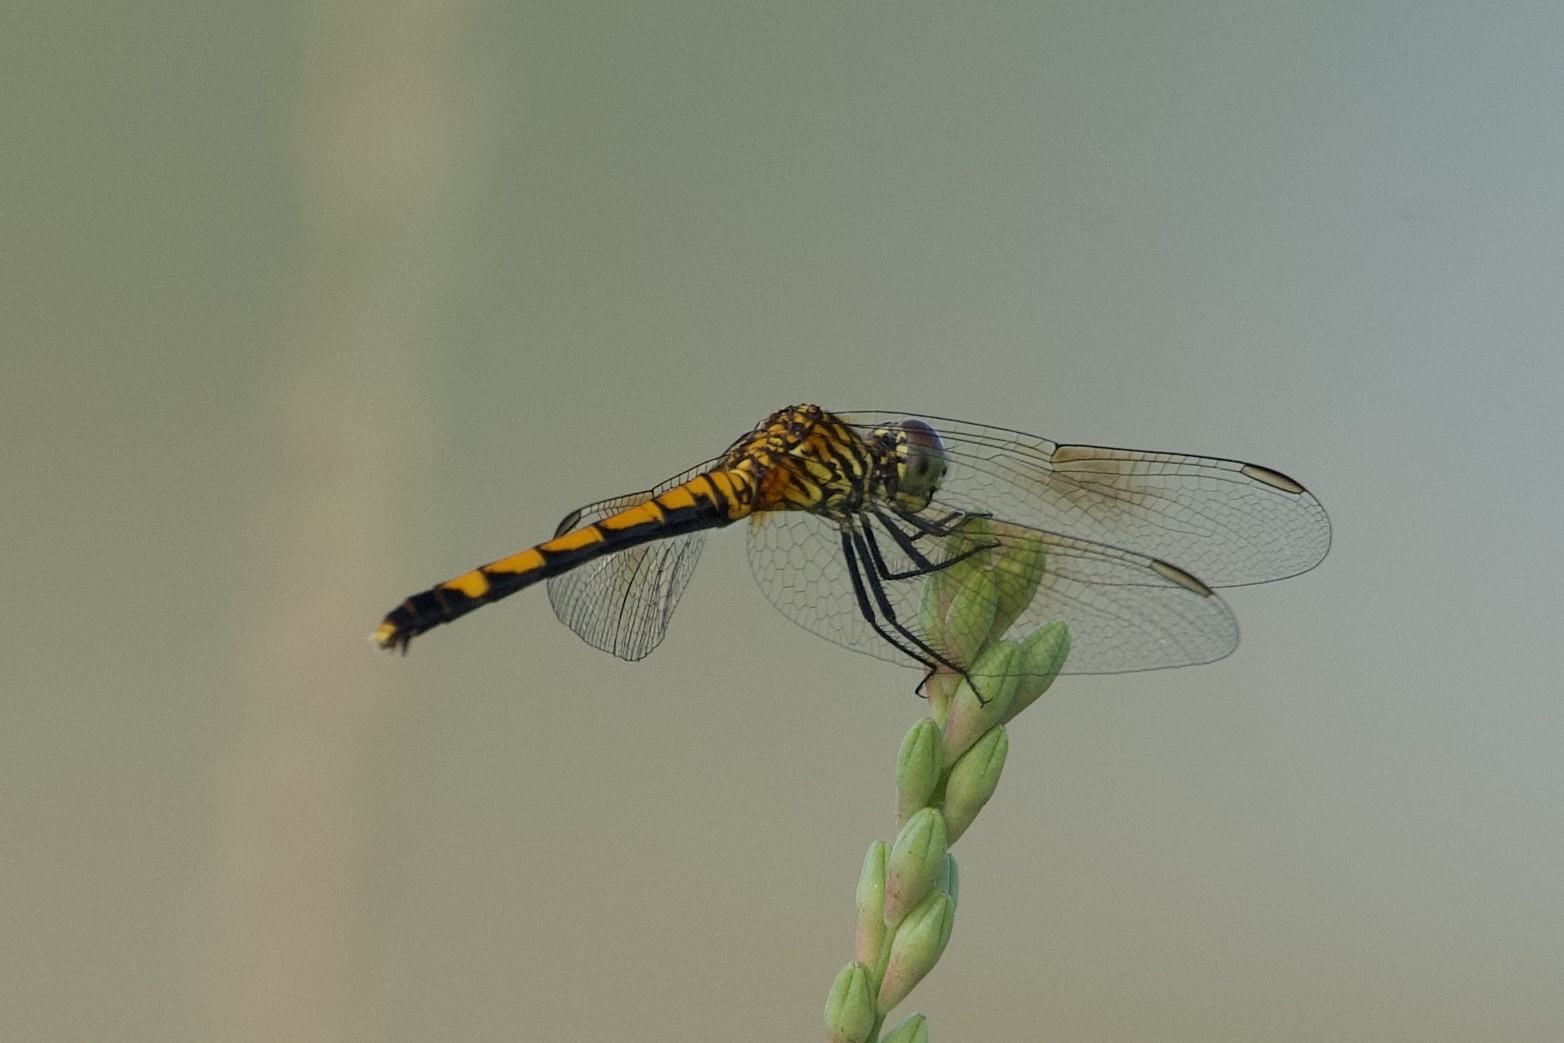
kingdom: Animalia
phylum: Arthropoda
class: Insecta
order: Odonata
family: Libellulidae
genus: Erythrodiplax
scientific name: Erythrodiplax berenice
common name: Seaside dragonlet
